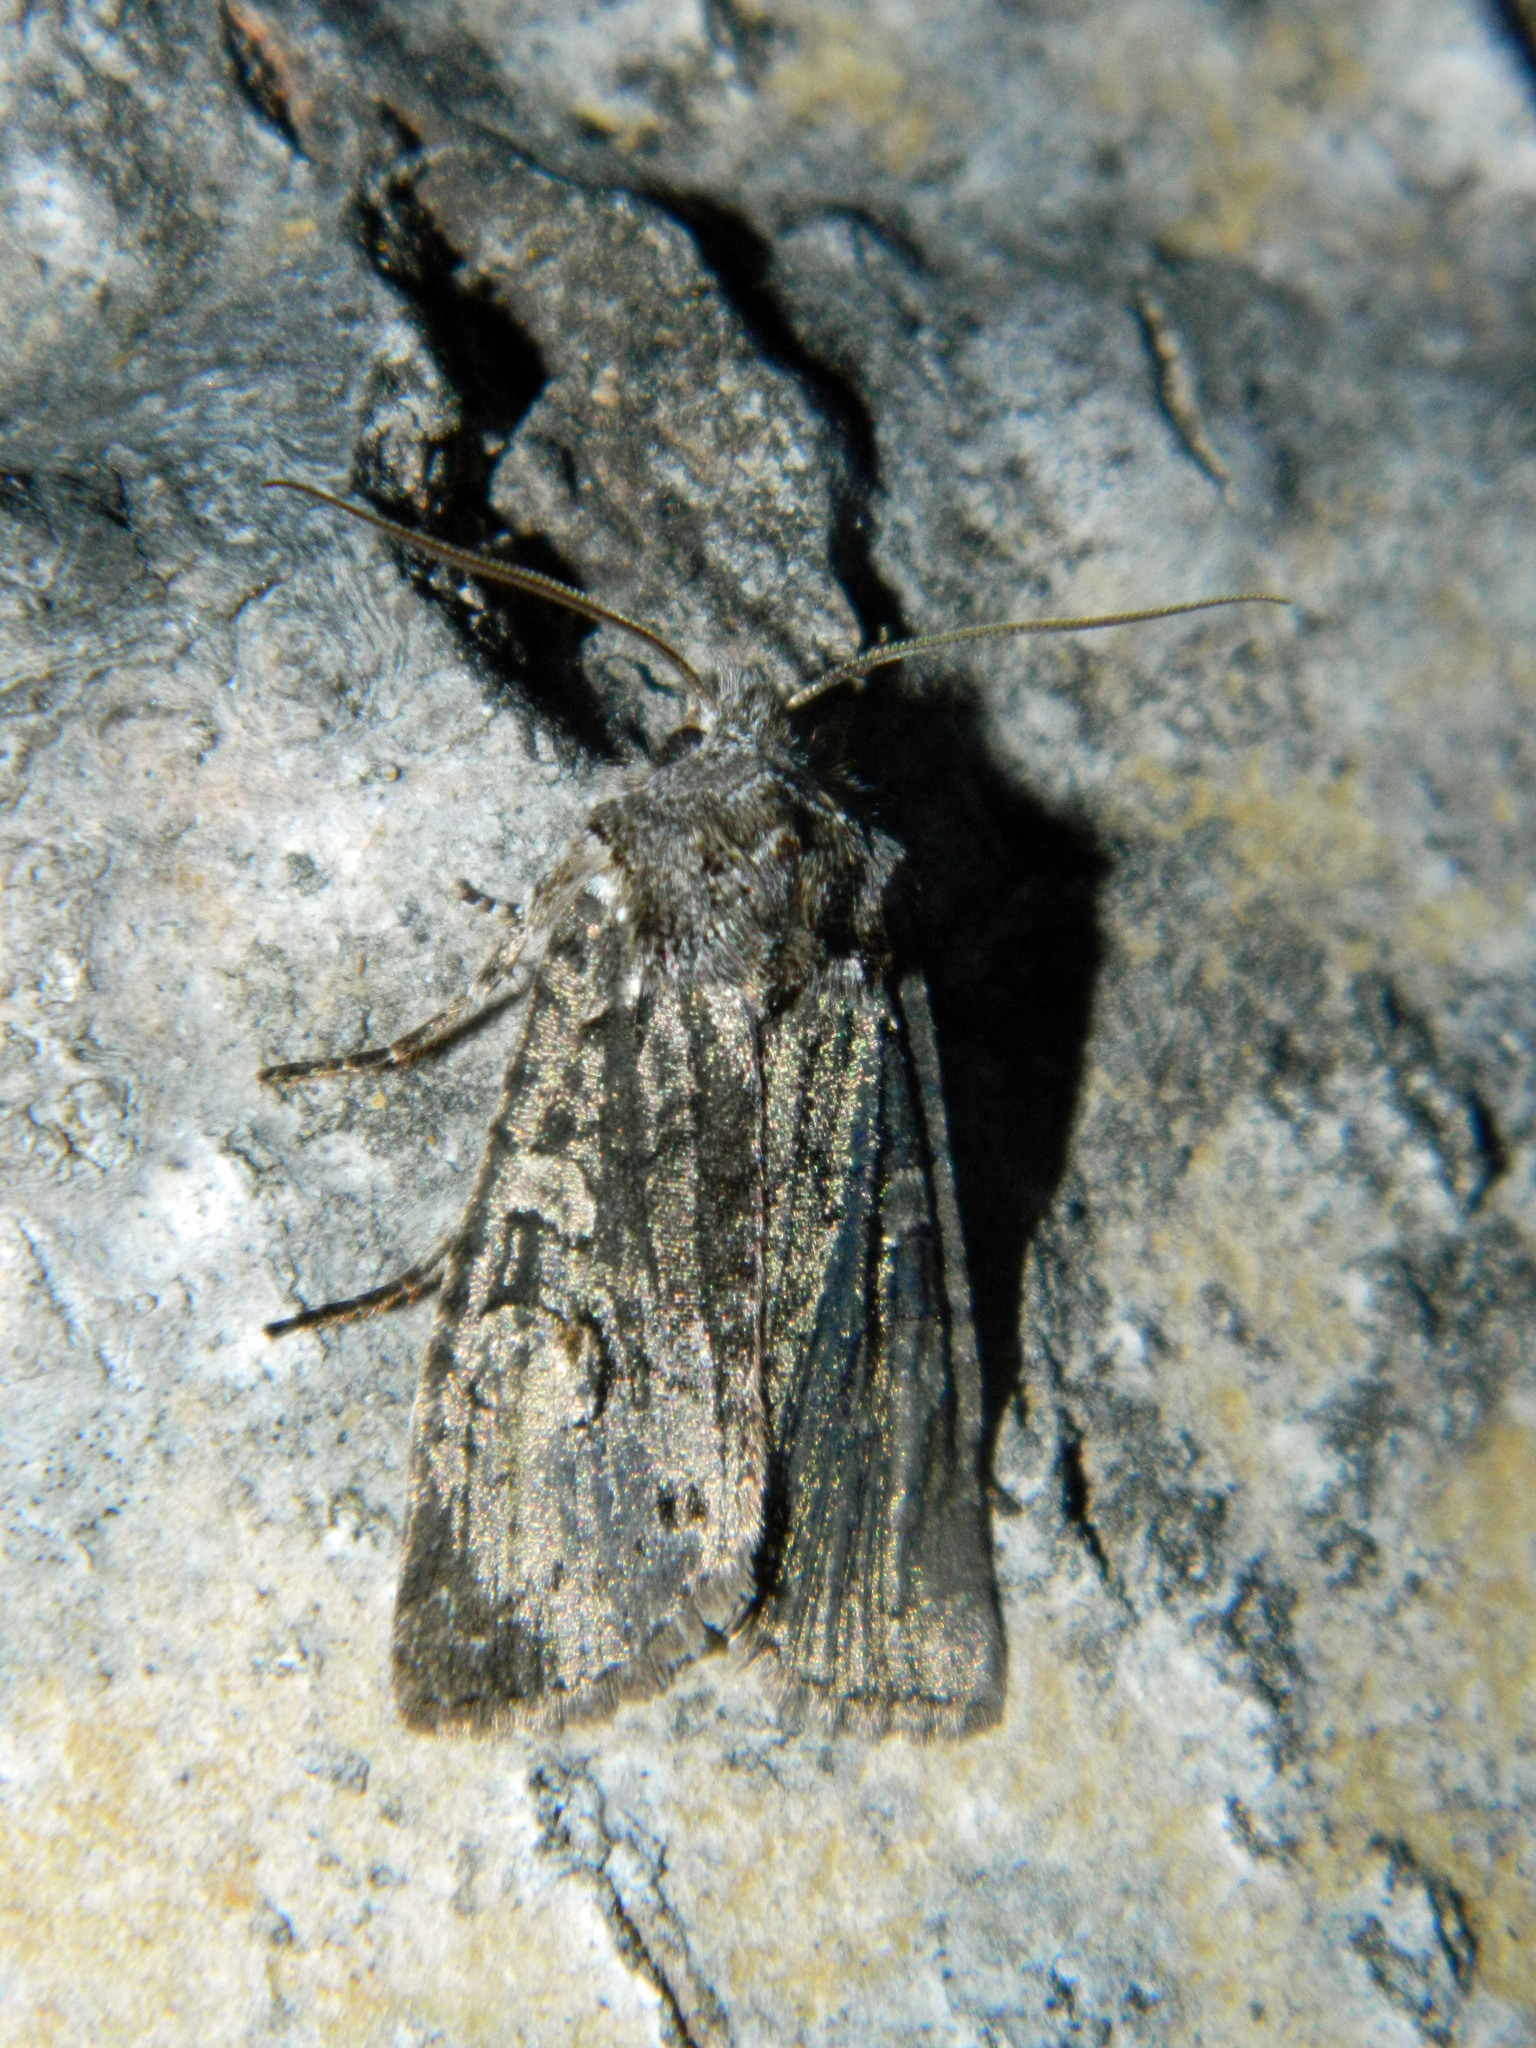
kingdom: Animalia
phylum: Arthropoda
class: Insecta
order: Lepidoptera
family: Noctuidae
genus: Lithophane
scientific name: Lithophane baileyi
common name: Bailey's pinion moth
